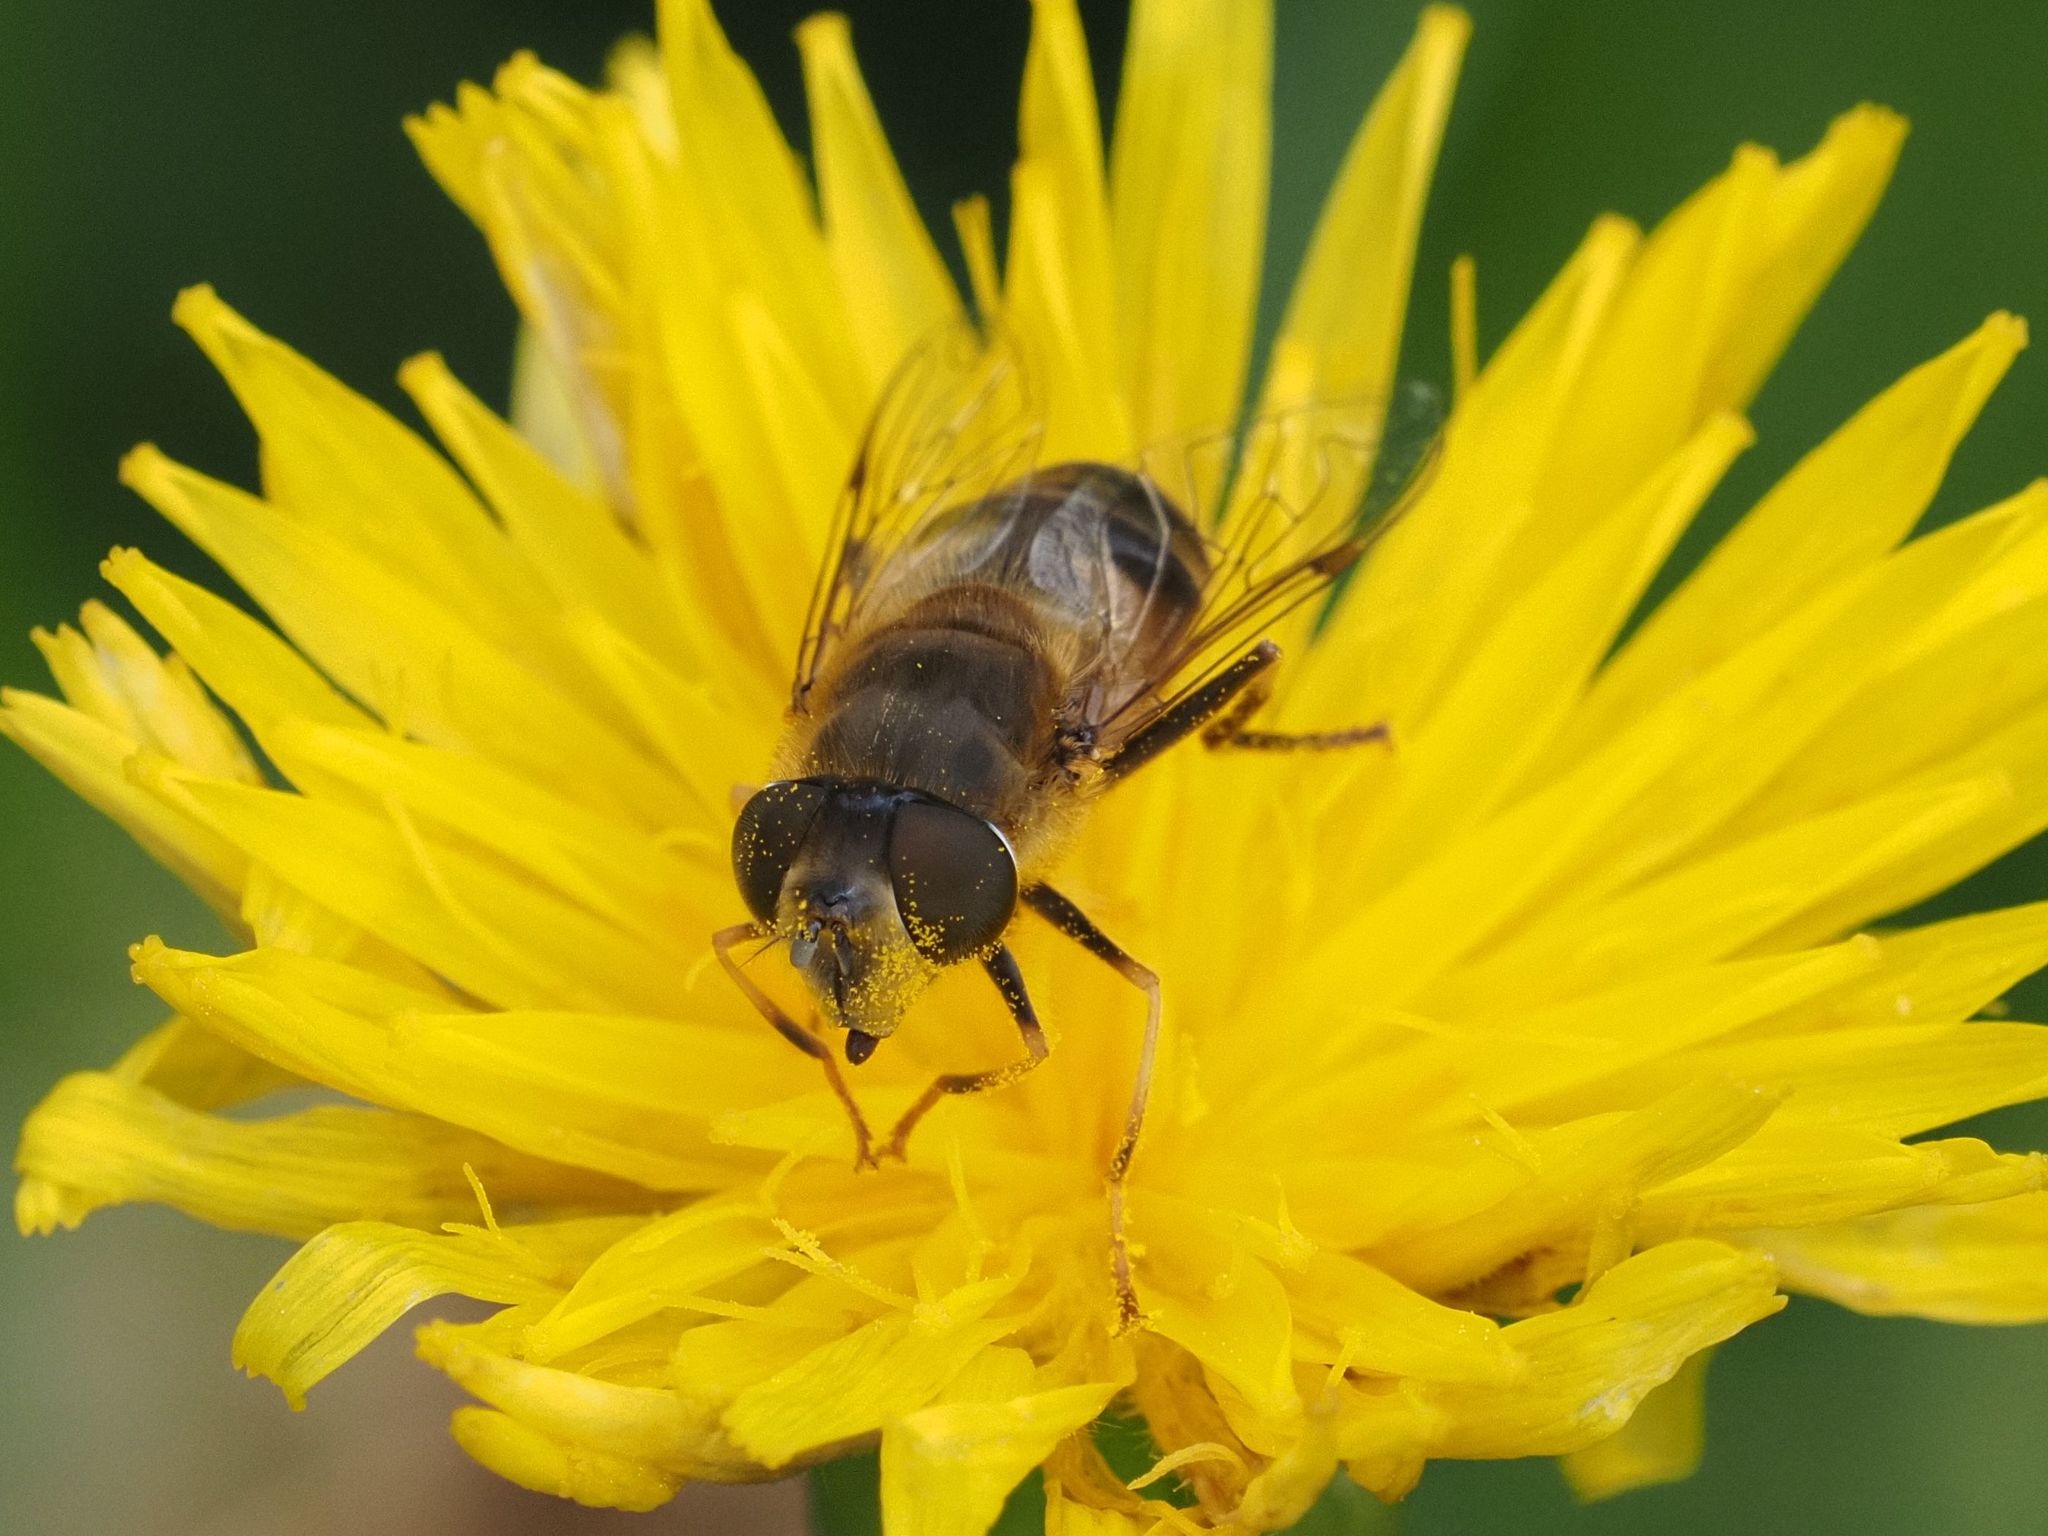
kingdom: Animalia
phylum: Arthropoda
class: Insecta
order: Diptera
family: Syrphidae
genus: Eristalis
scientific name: Eristalis pertinax
